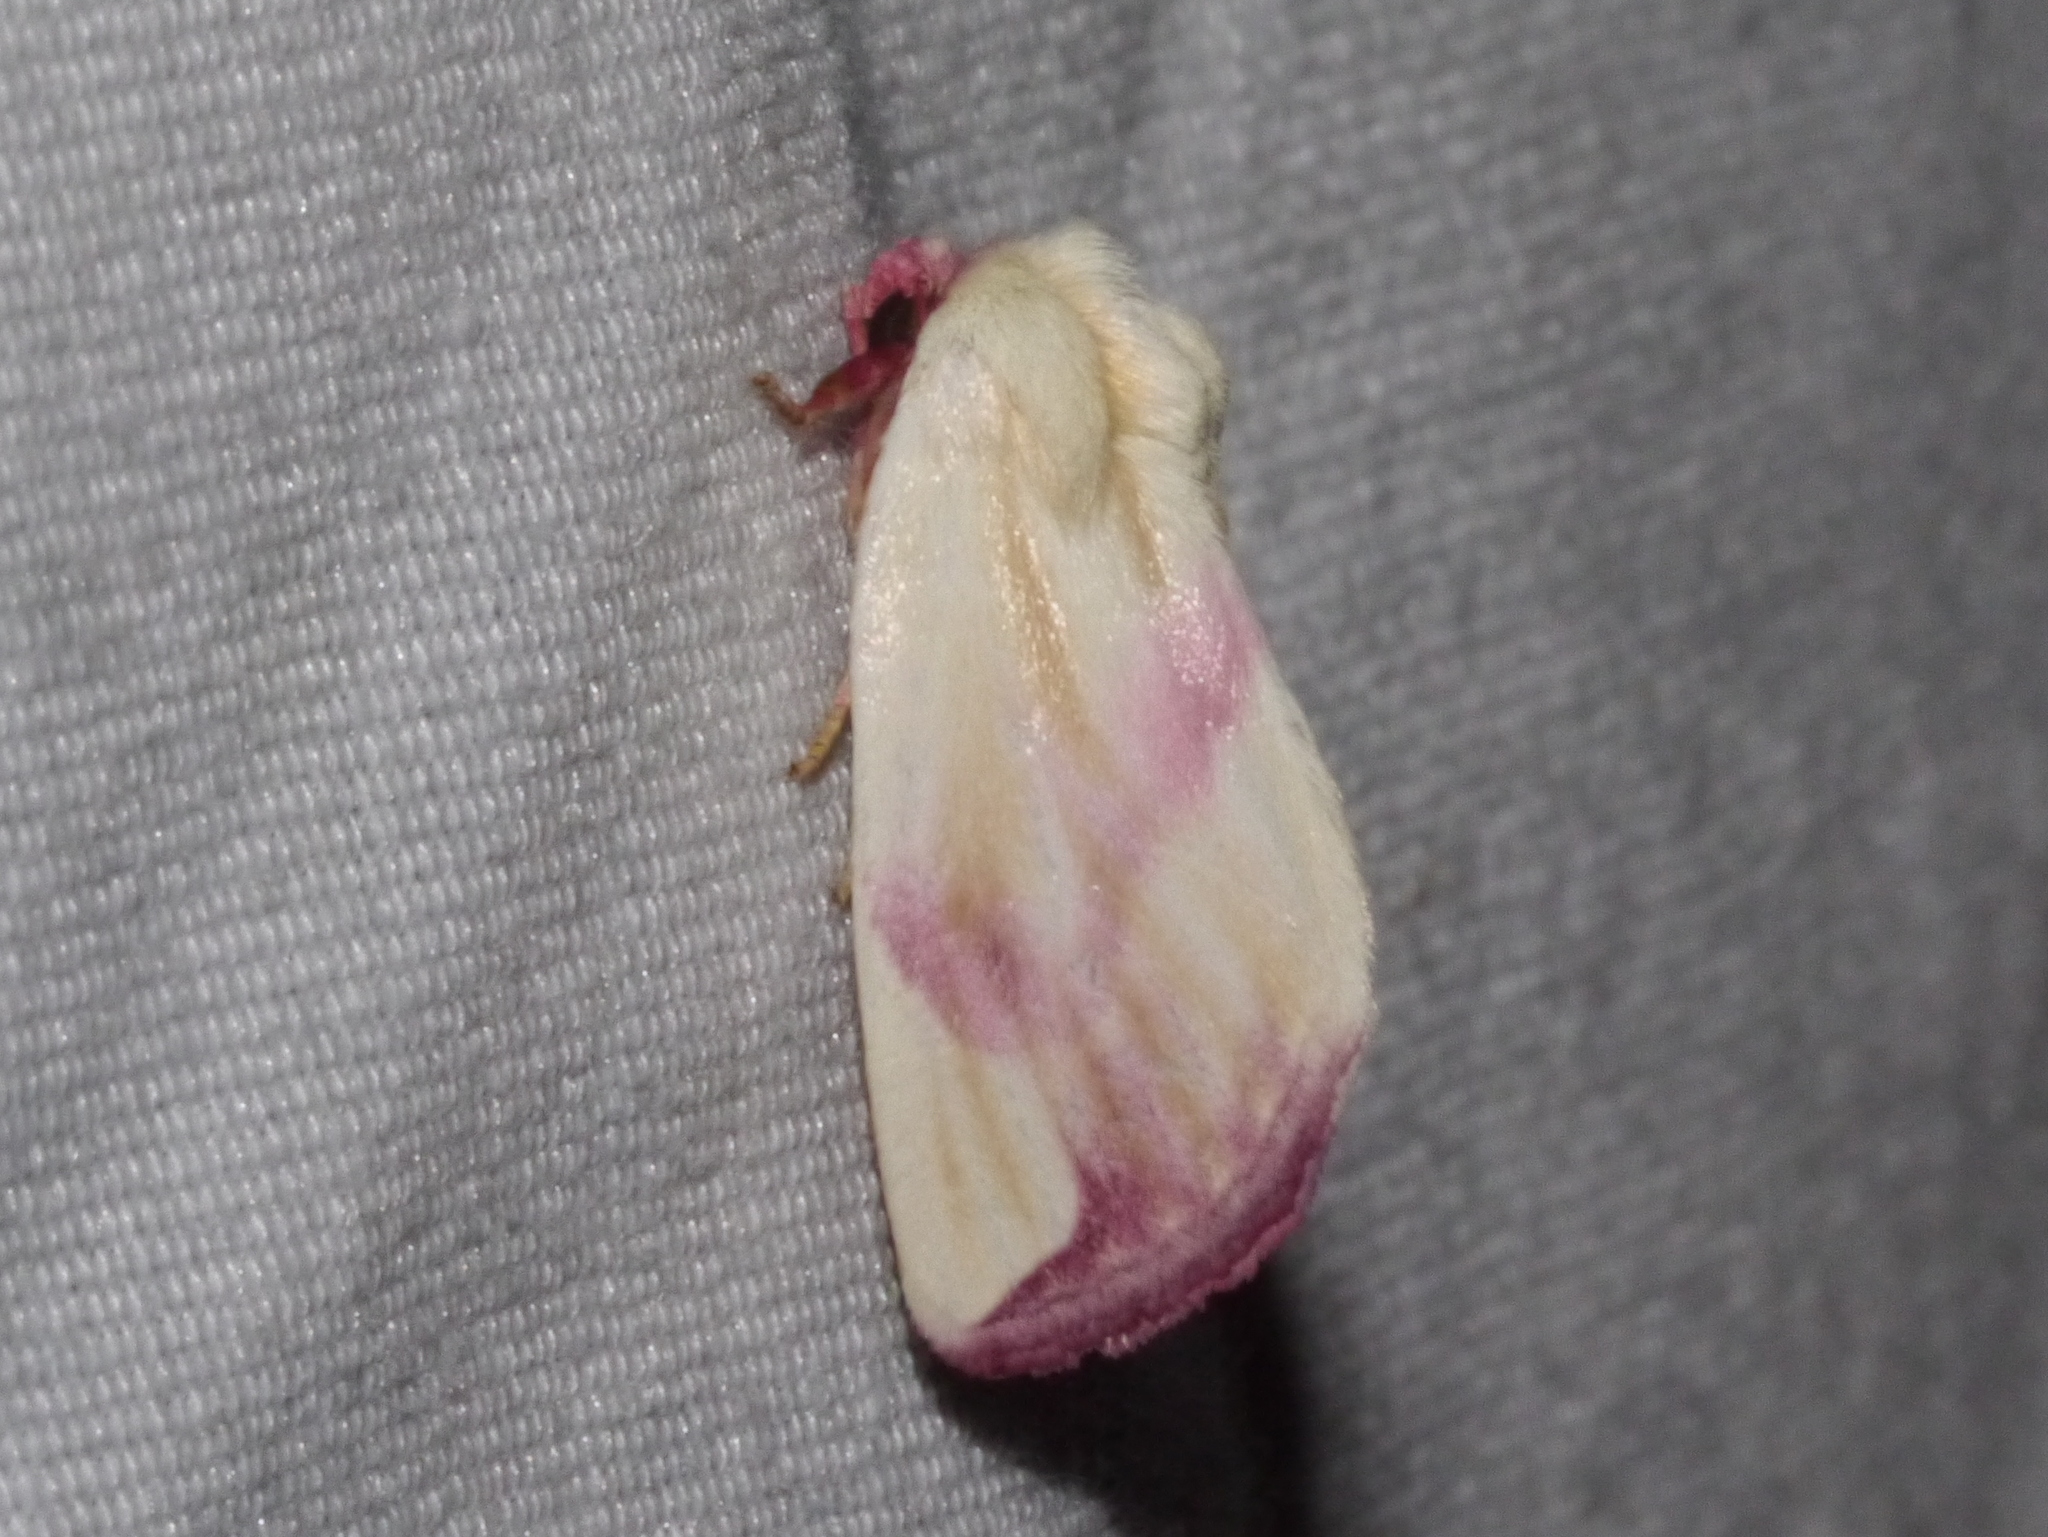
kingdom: Animalia
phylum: Arthropoda
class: Insecta
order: Lepidoptera
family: Noctuidae
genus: Thurberiphaga
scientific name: Thurberiphaga diffusa
